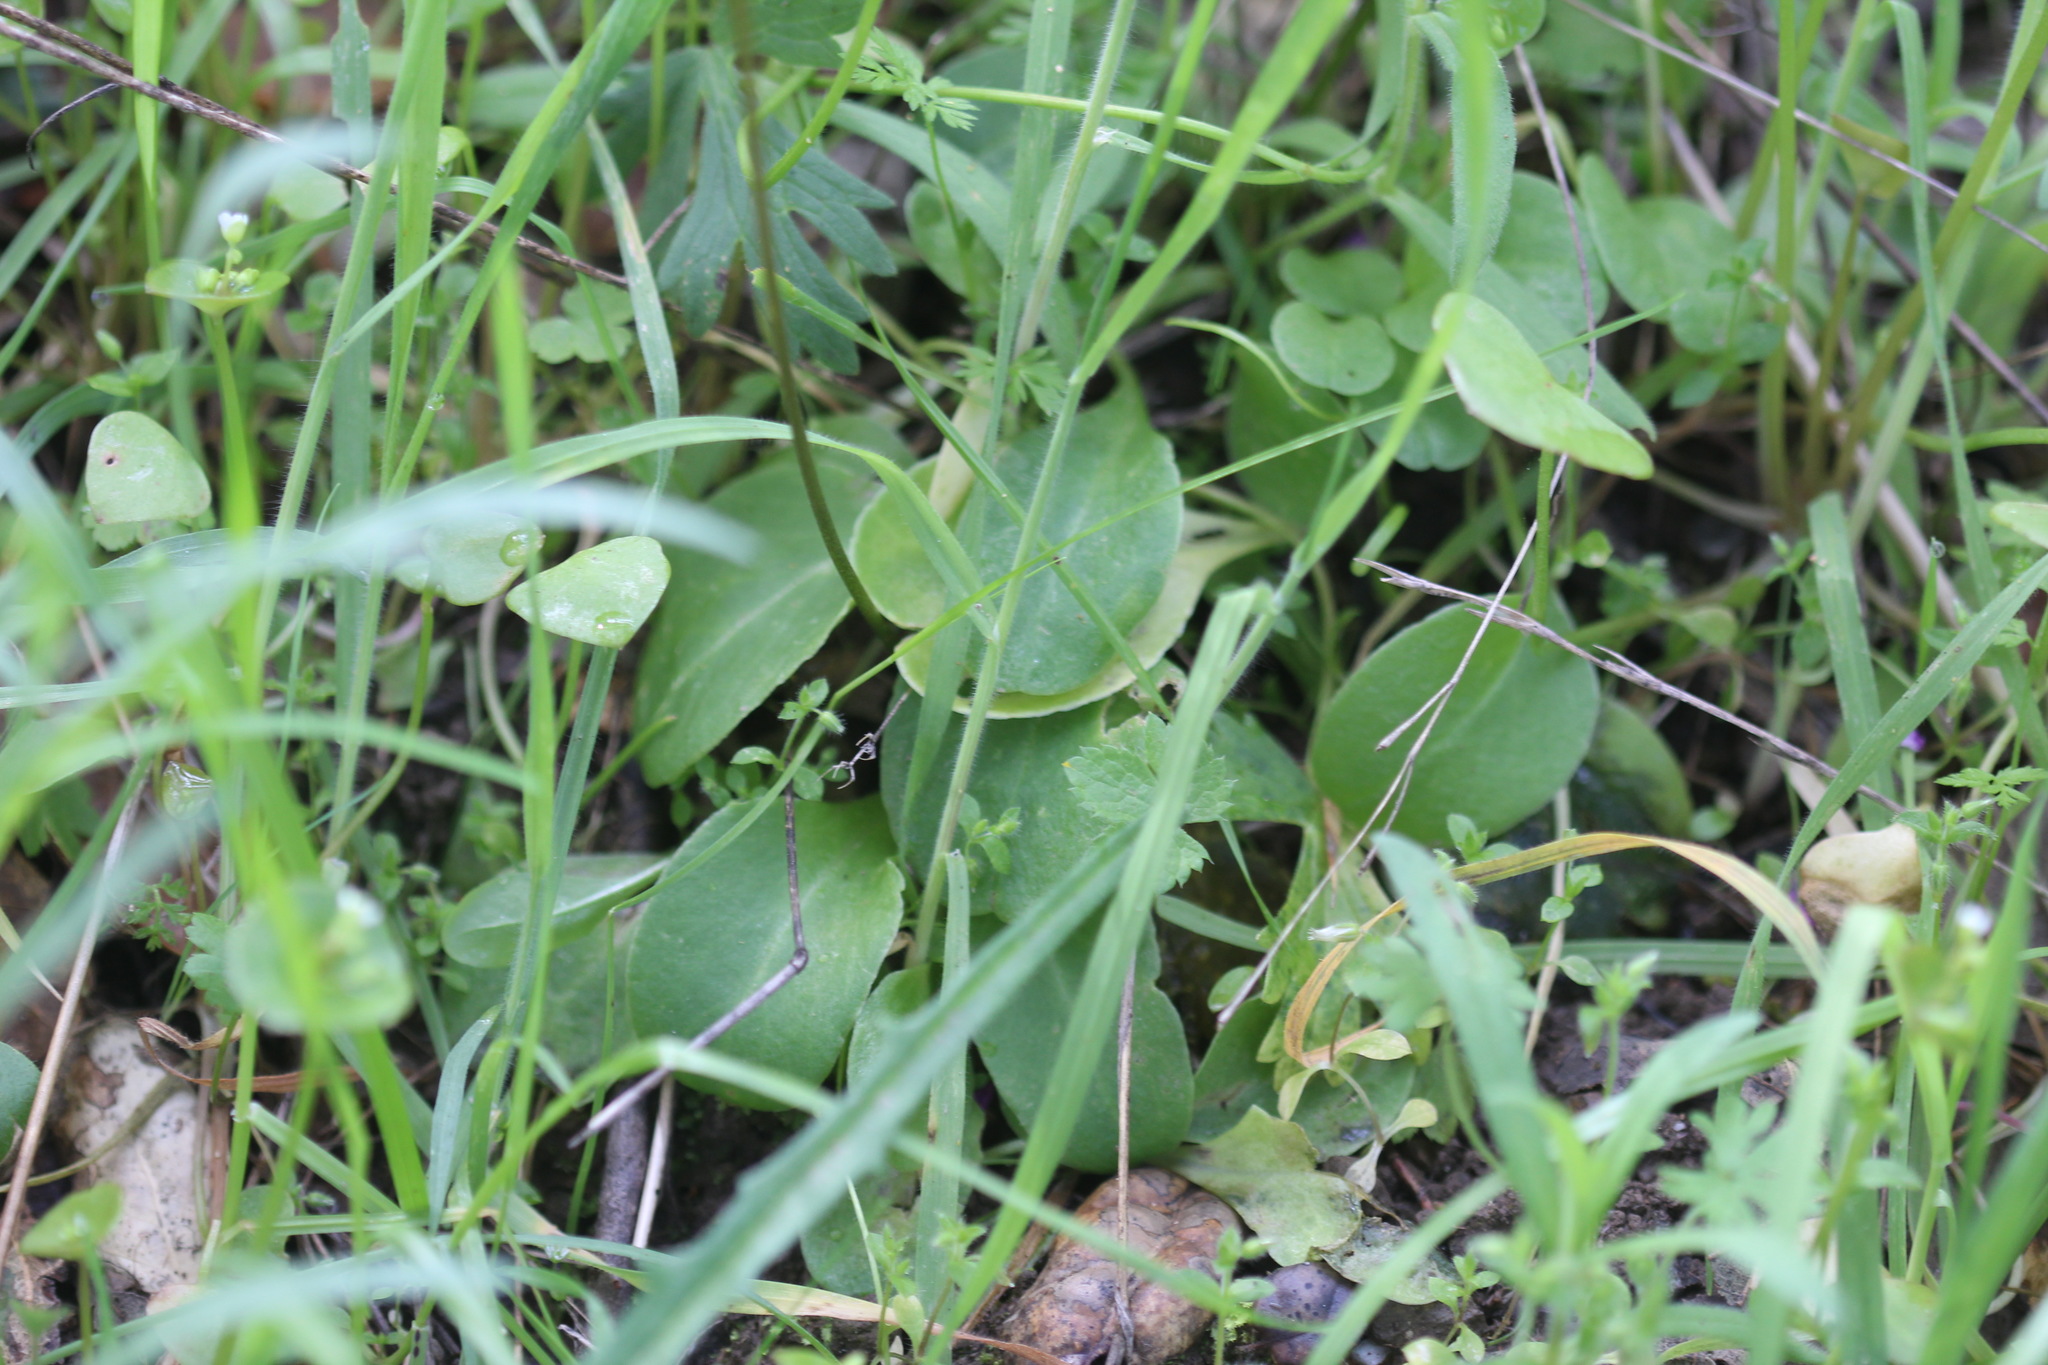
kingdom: Plantae
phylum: Tracheophyta
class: Magnoliopsida
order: Ericales
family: Primulaceae
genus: Dodecatheon
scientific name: Dodecatheon hendersonii
